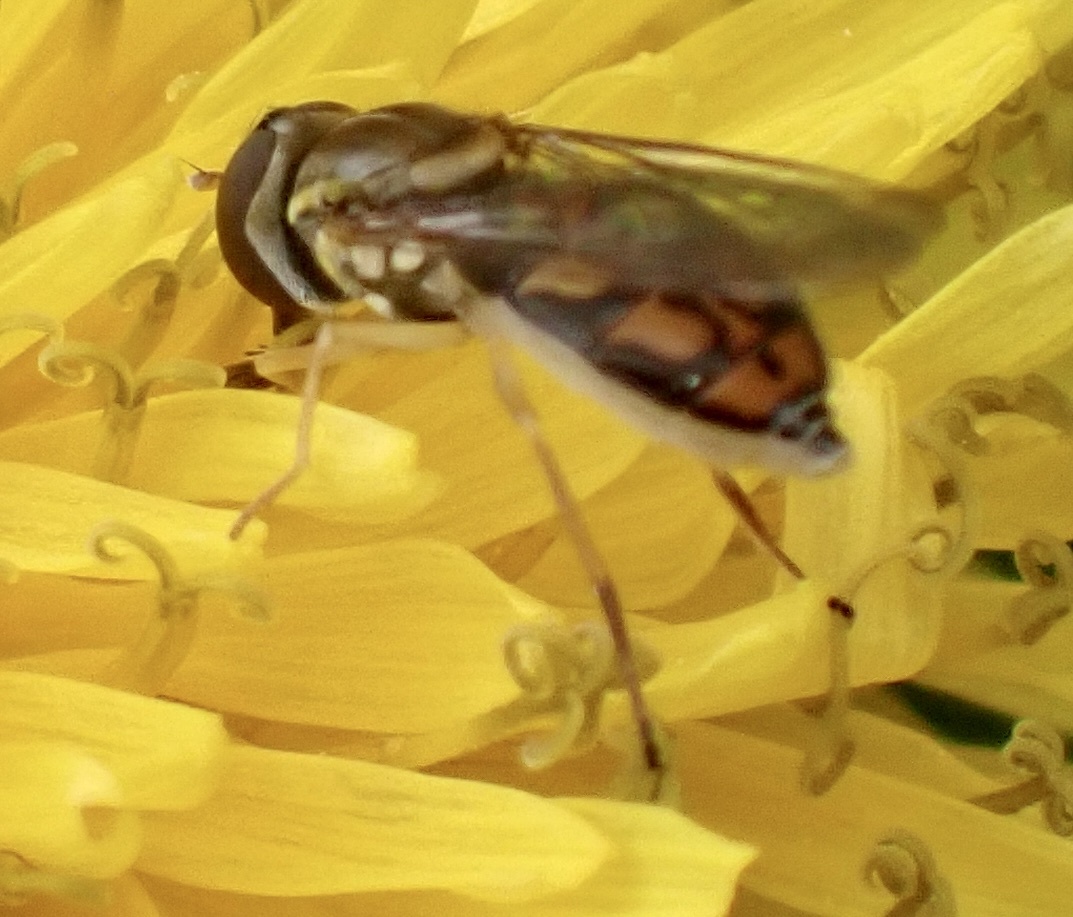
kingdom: Animalia
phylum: Arthropoda
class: Insecta
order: Diptera
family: Syrphidae
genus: Toxomerus
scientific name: Toxomerus marginatus
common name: Syrphid fly
